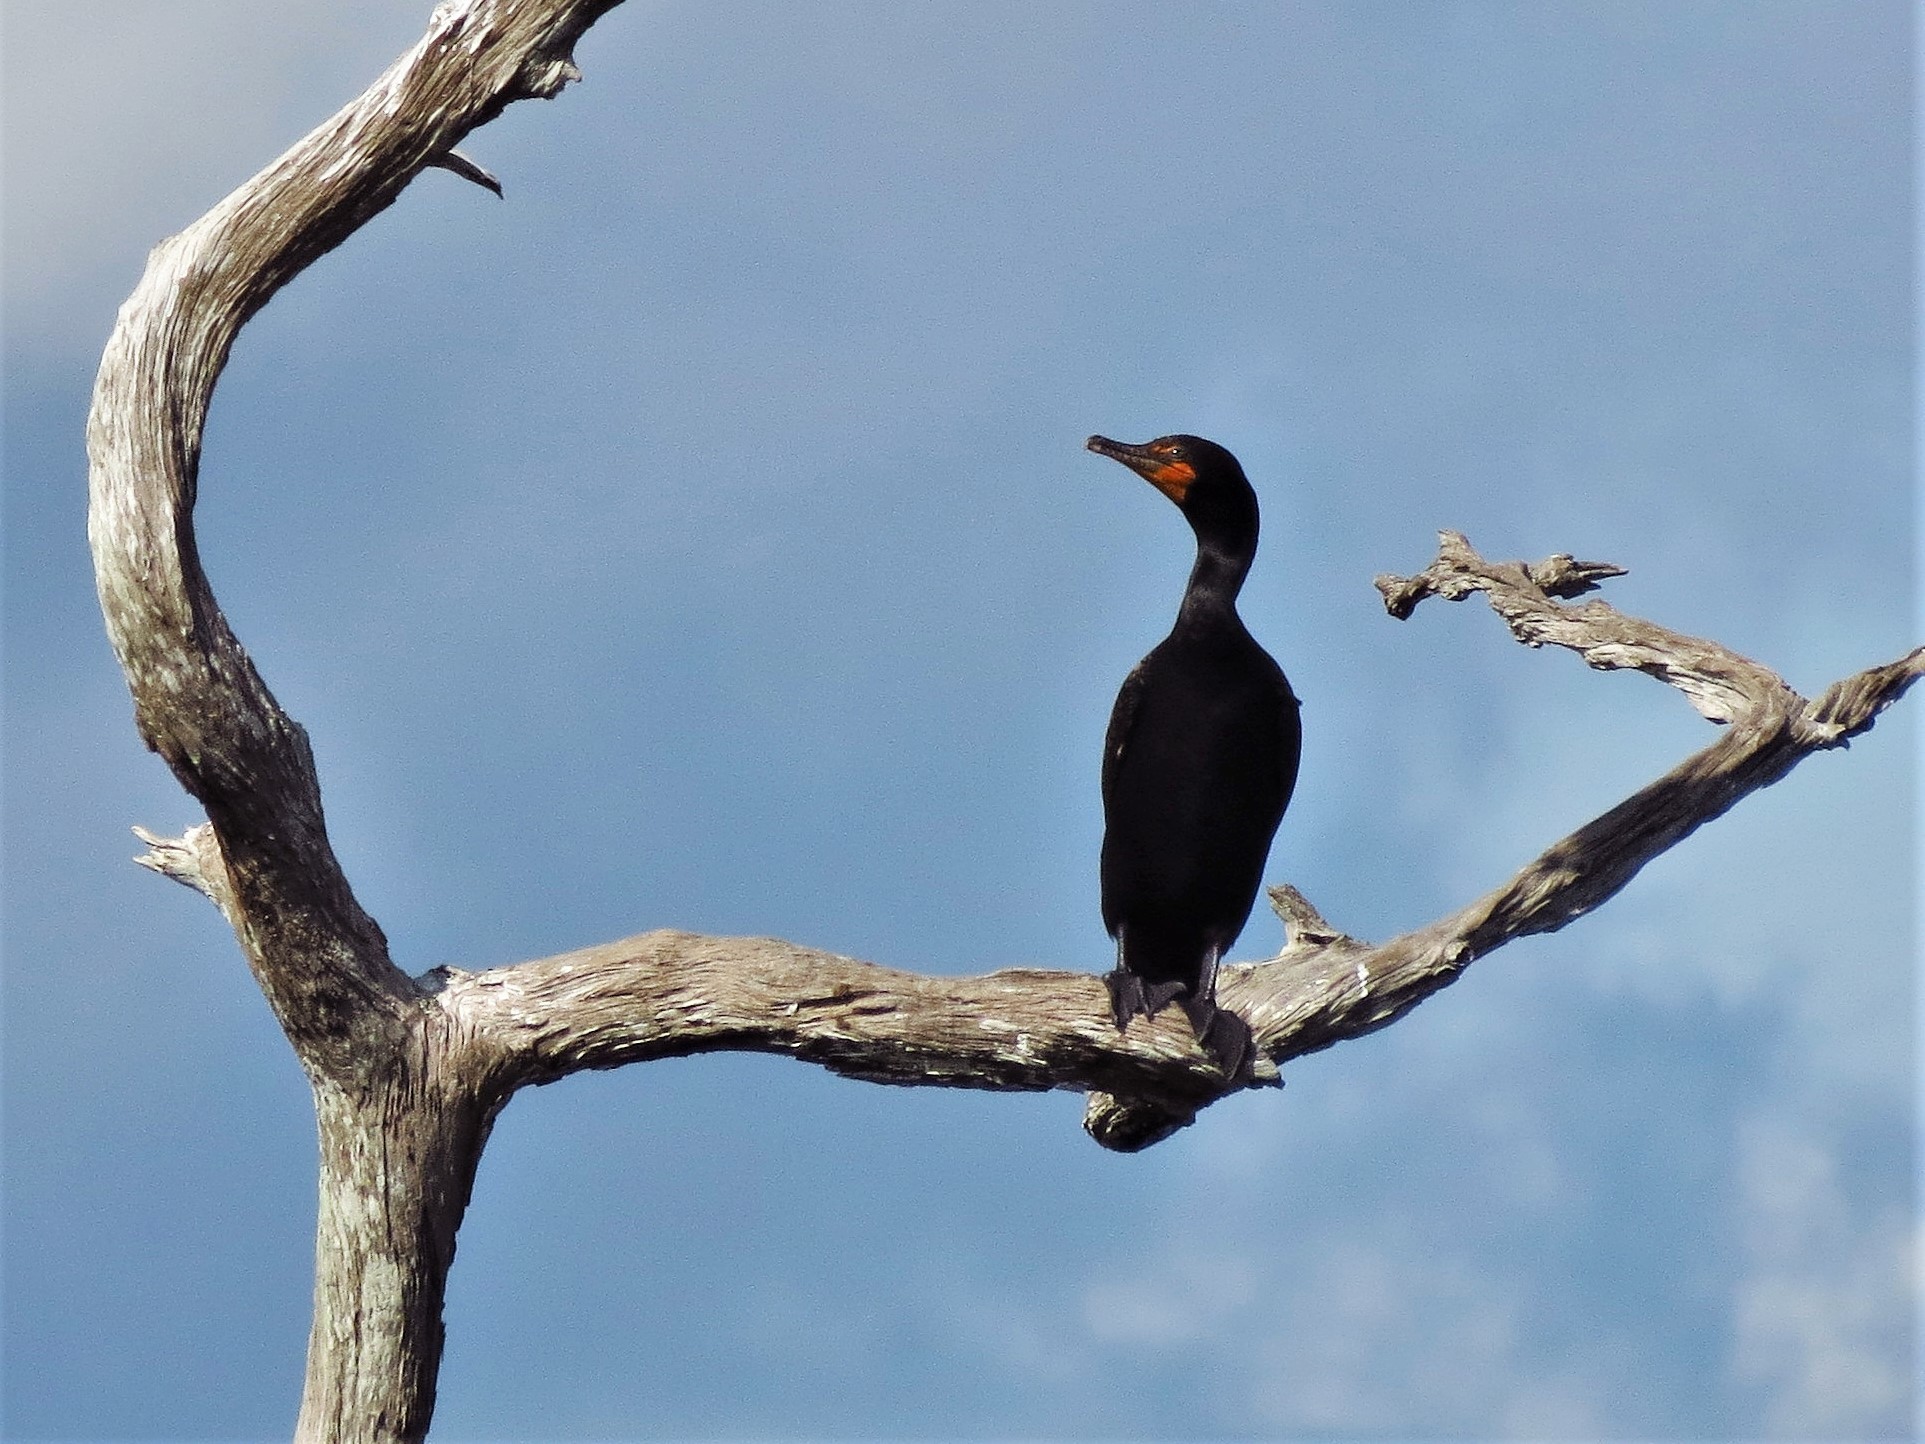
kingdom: Animalia
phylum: Chordata
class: Aves
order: Suliformes
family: Phalacrocoracidae
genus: Phalacrocorax
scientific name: Phalacrocorax auritus
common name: Double-crested cormorant
